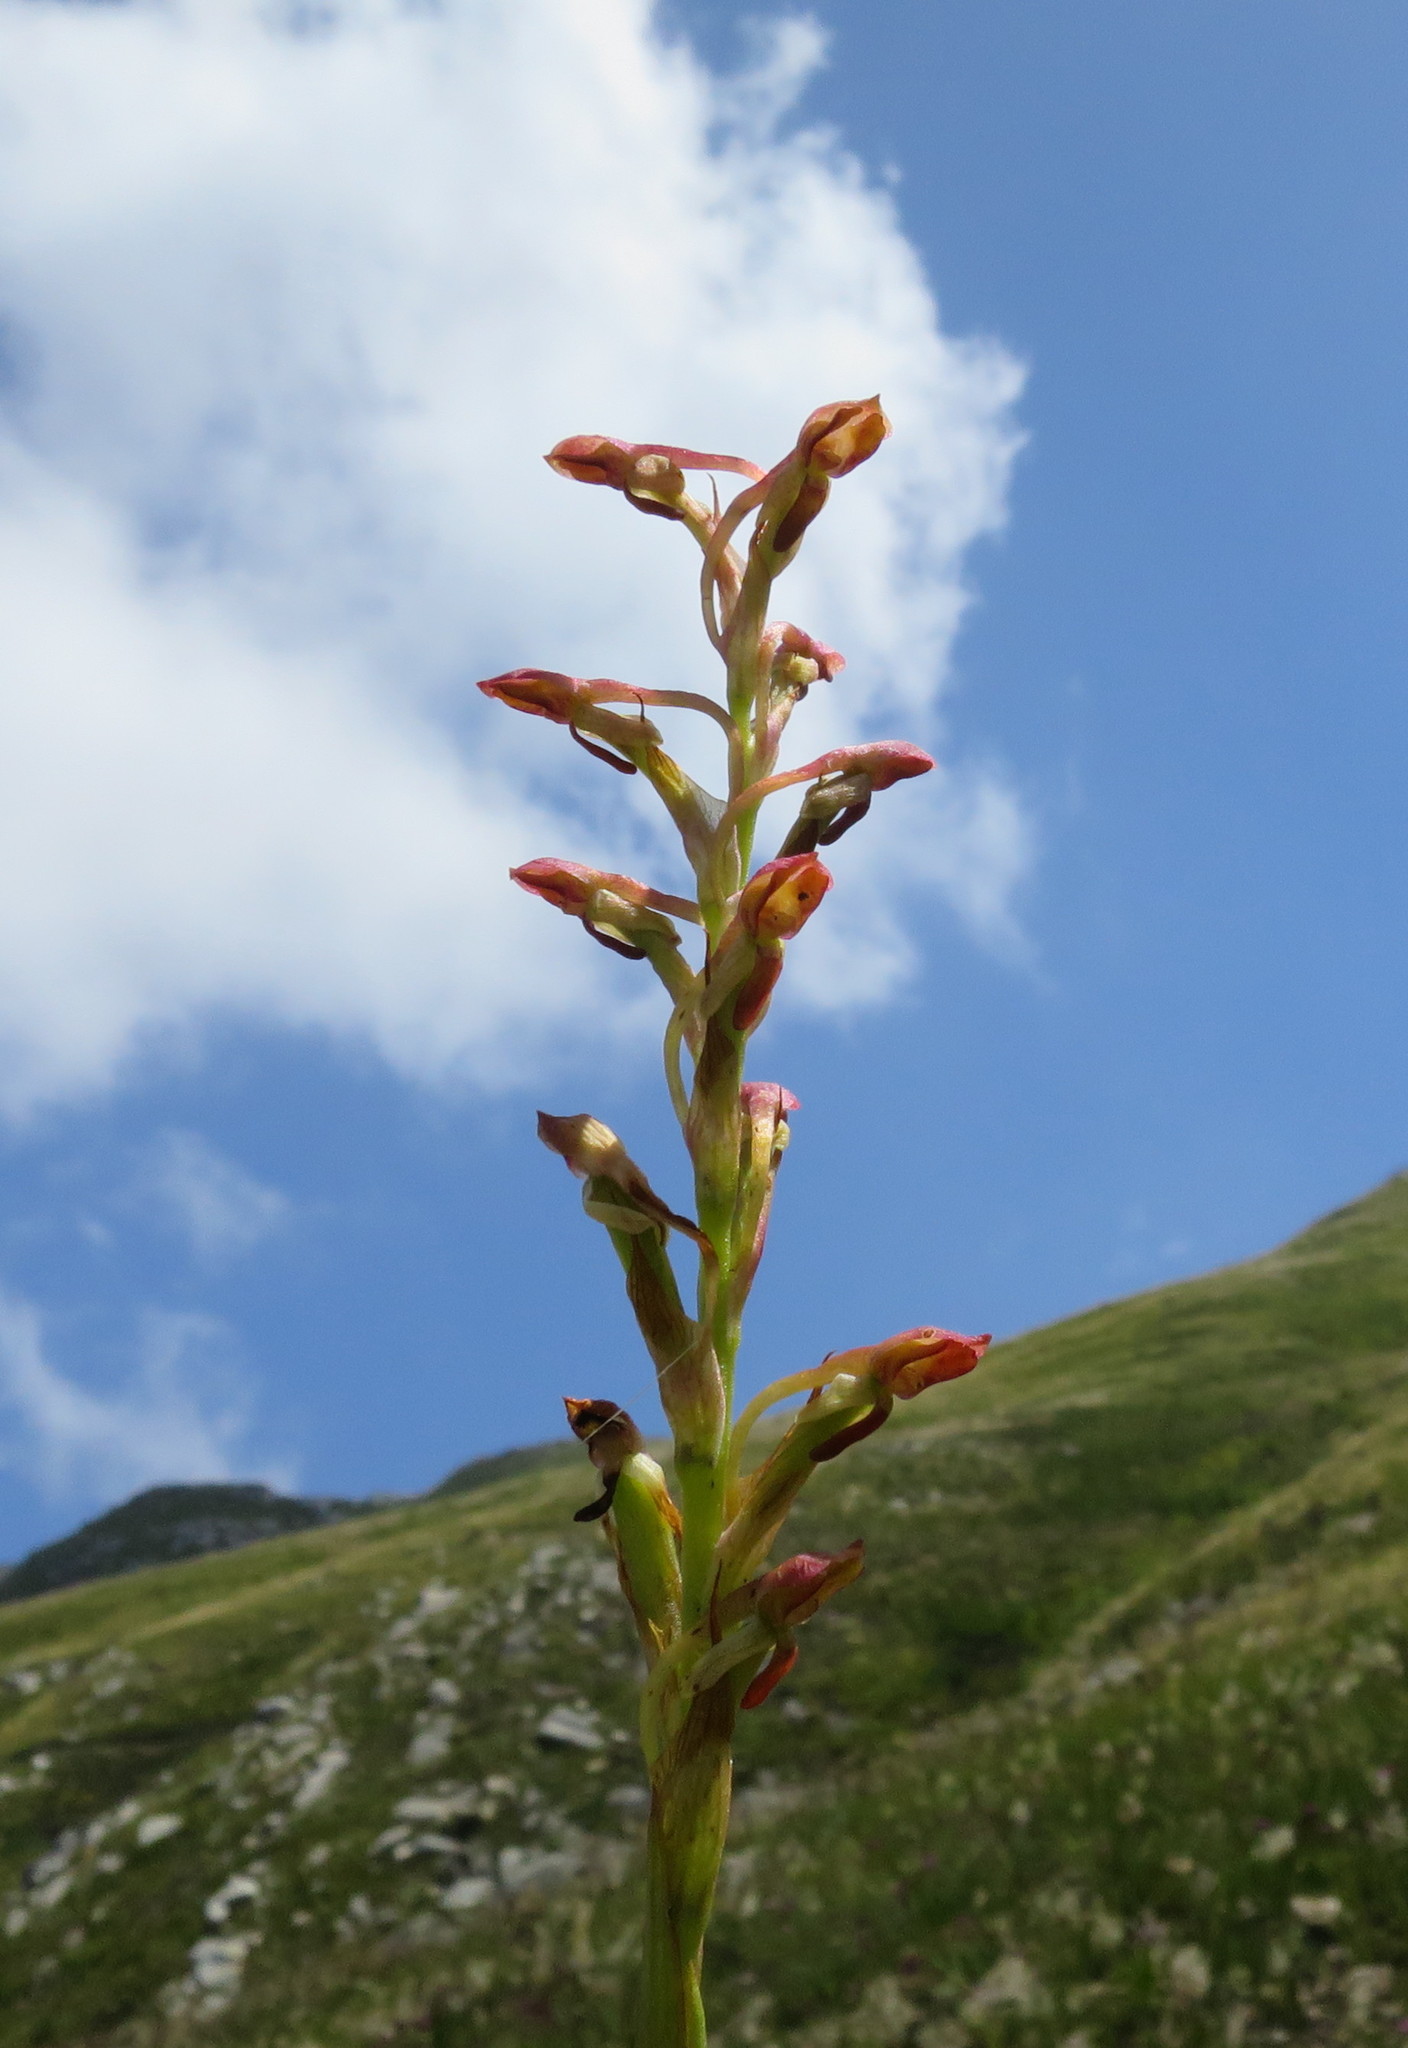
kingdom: Plantae
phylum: Tracheophyta
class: Liliopsida
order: Asparagales
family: Orchidaceae
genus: Disa
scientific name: Disa reticulata
